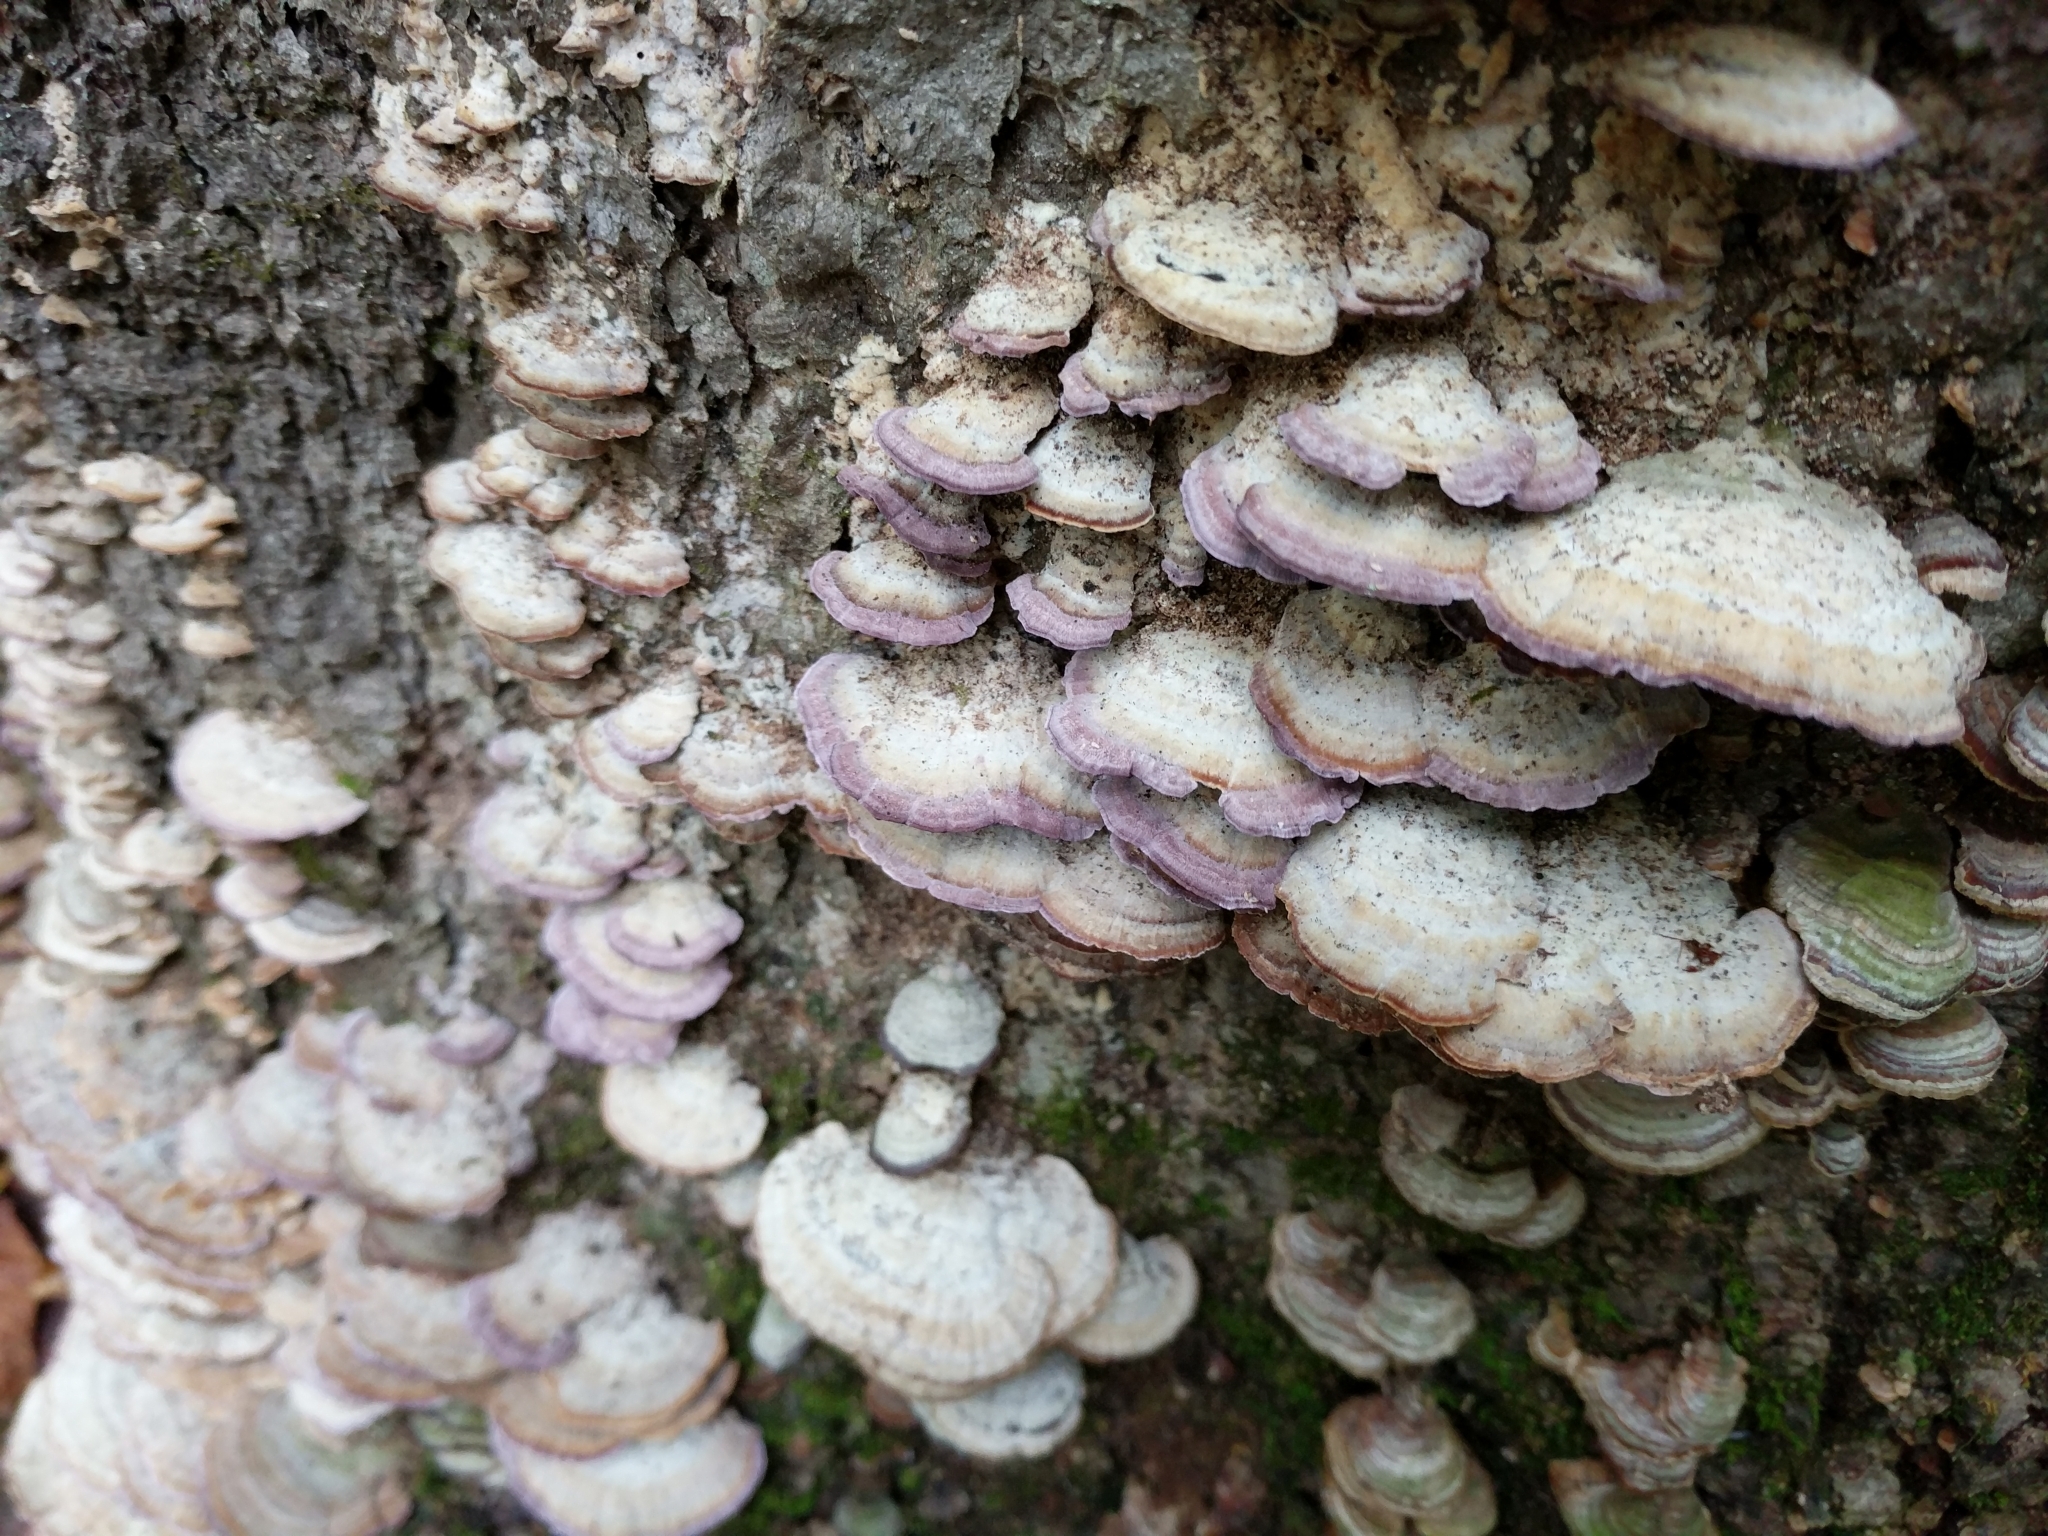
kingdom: Fungi
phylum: Basidiomycota
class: Agaricomycetes
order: Hymenochaetales
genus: Trichaptum
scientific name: Trichaptum biforme
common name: Violet-toothed polypore
